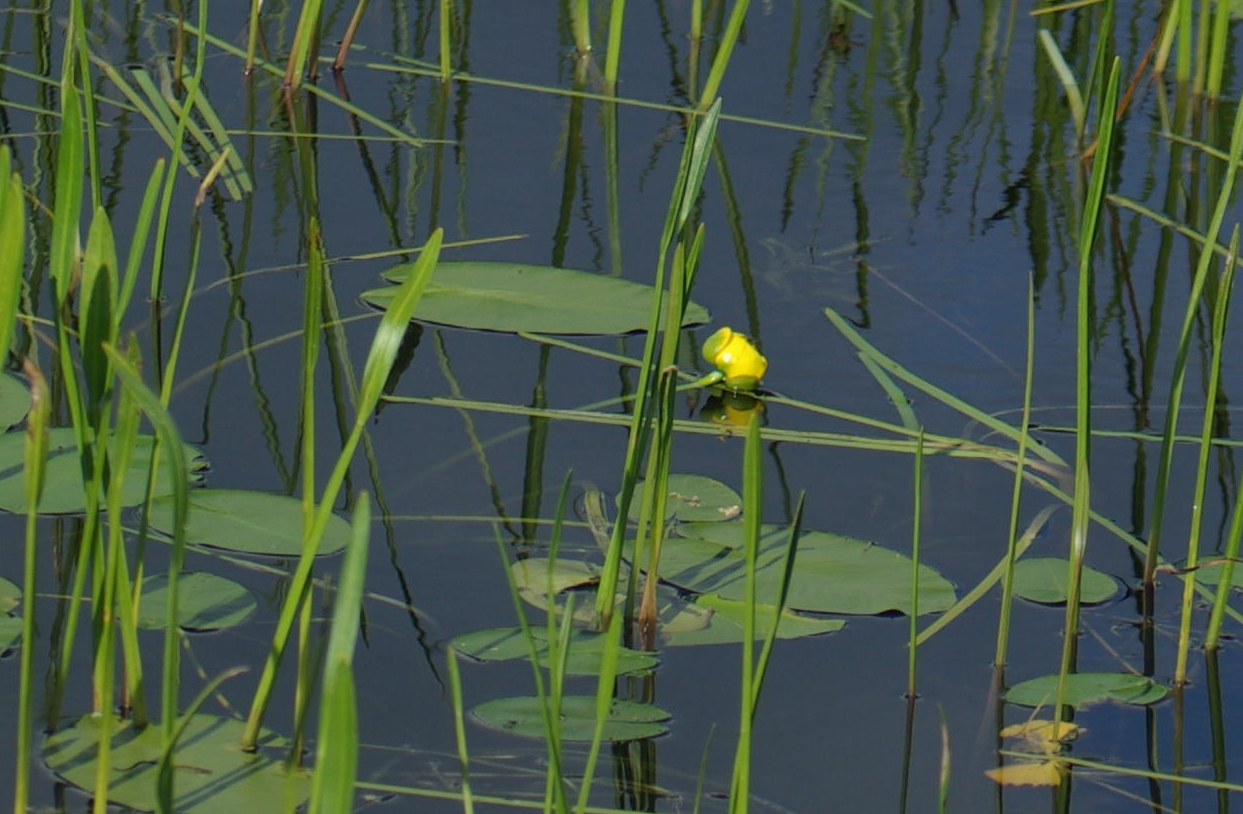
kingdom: Plantae
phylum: Tracheophyta
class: Magnoliopsida
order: Nymphaeales
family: Nymphaeaceae
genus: Nuphar
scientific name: Nuphar variegata
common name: Beaver-root
